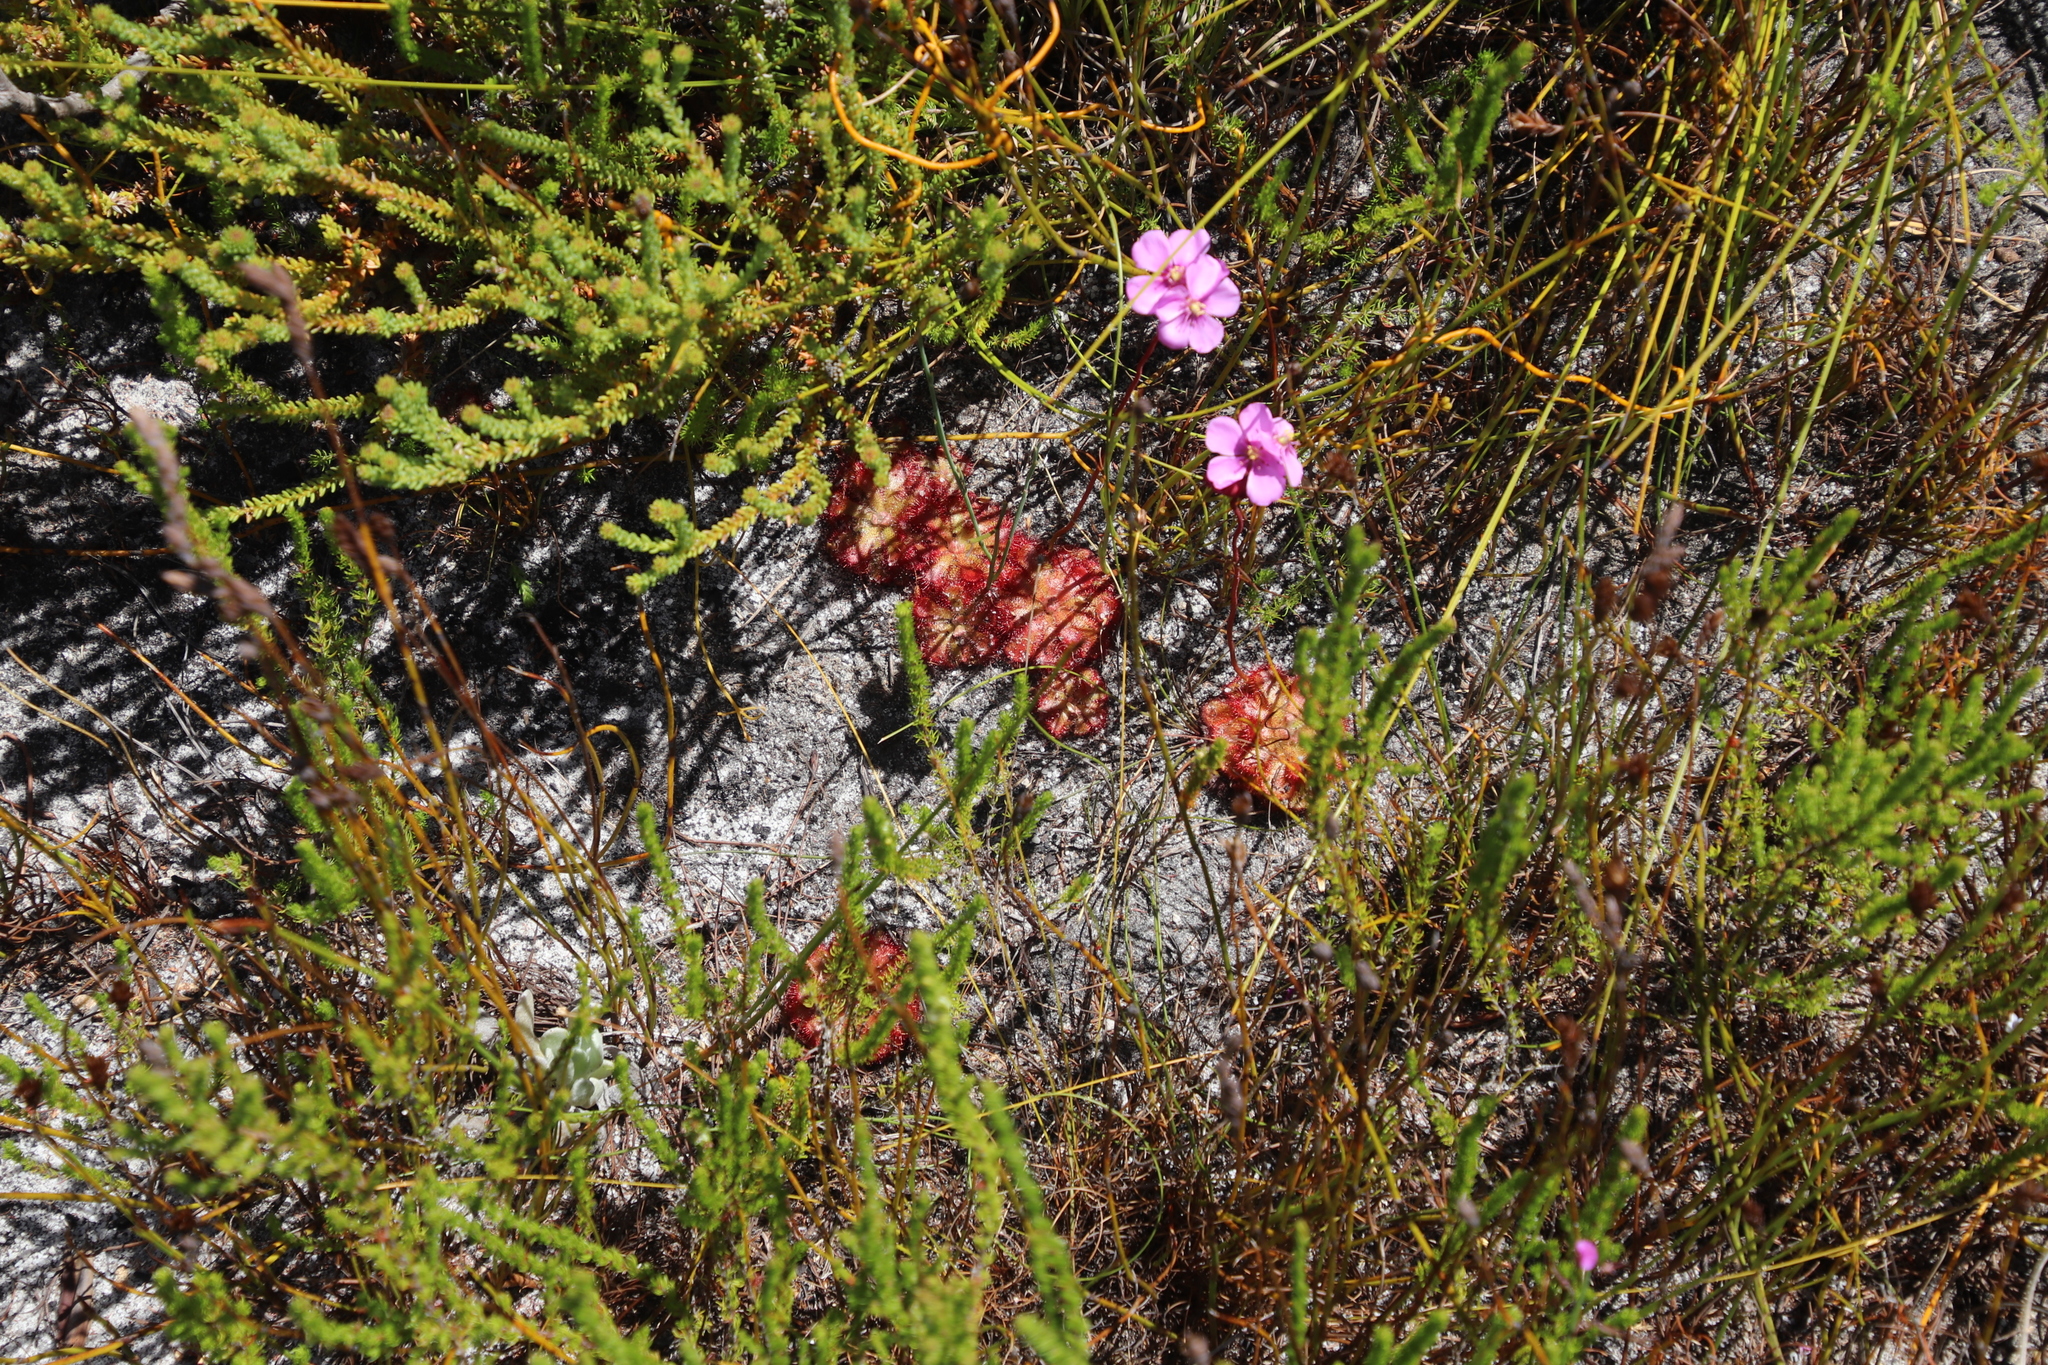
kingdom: Plantae
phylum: Tracheophyta
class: Magnoliopsida
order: Caryophyllales
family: Droseraceae
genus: Drosera
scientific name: Drosera aliciae
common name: Alice sundew
